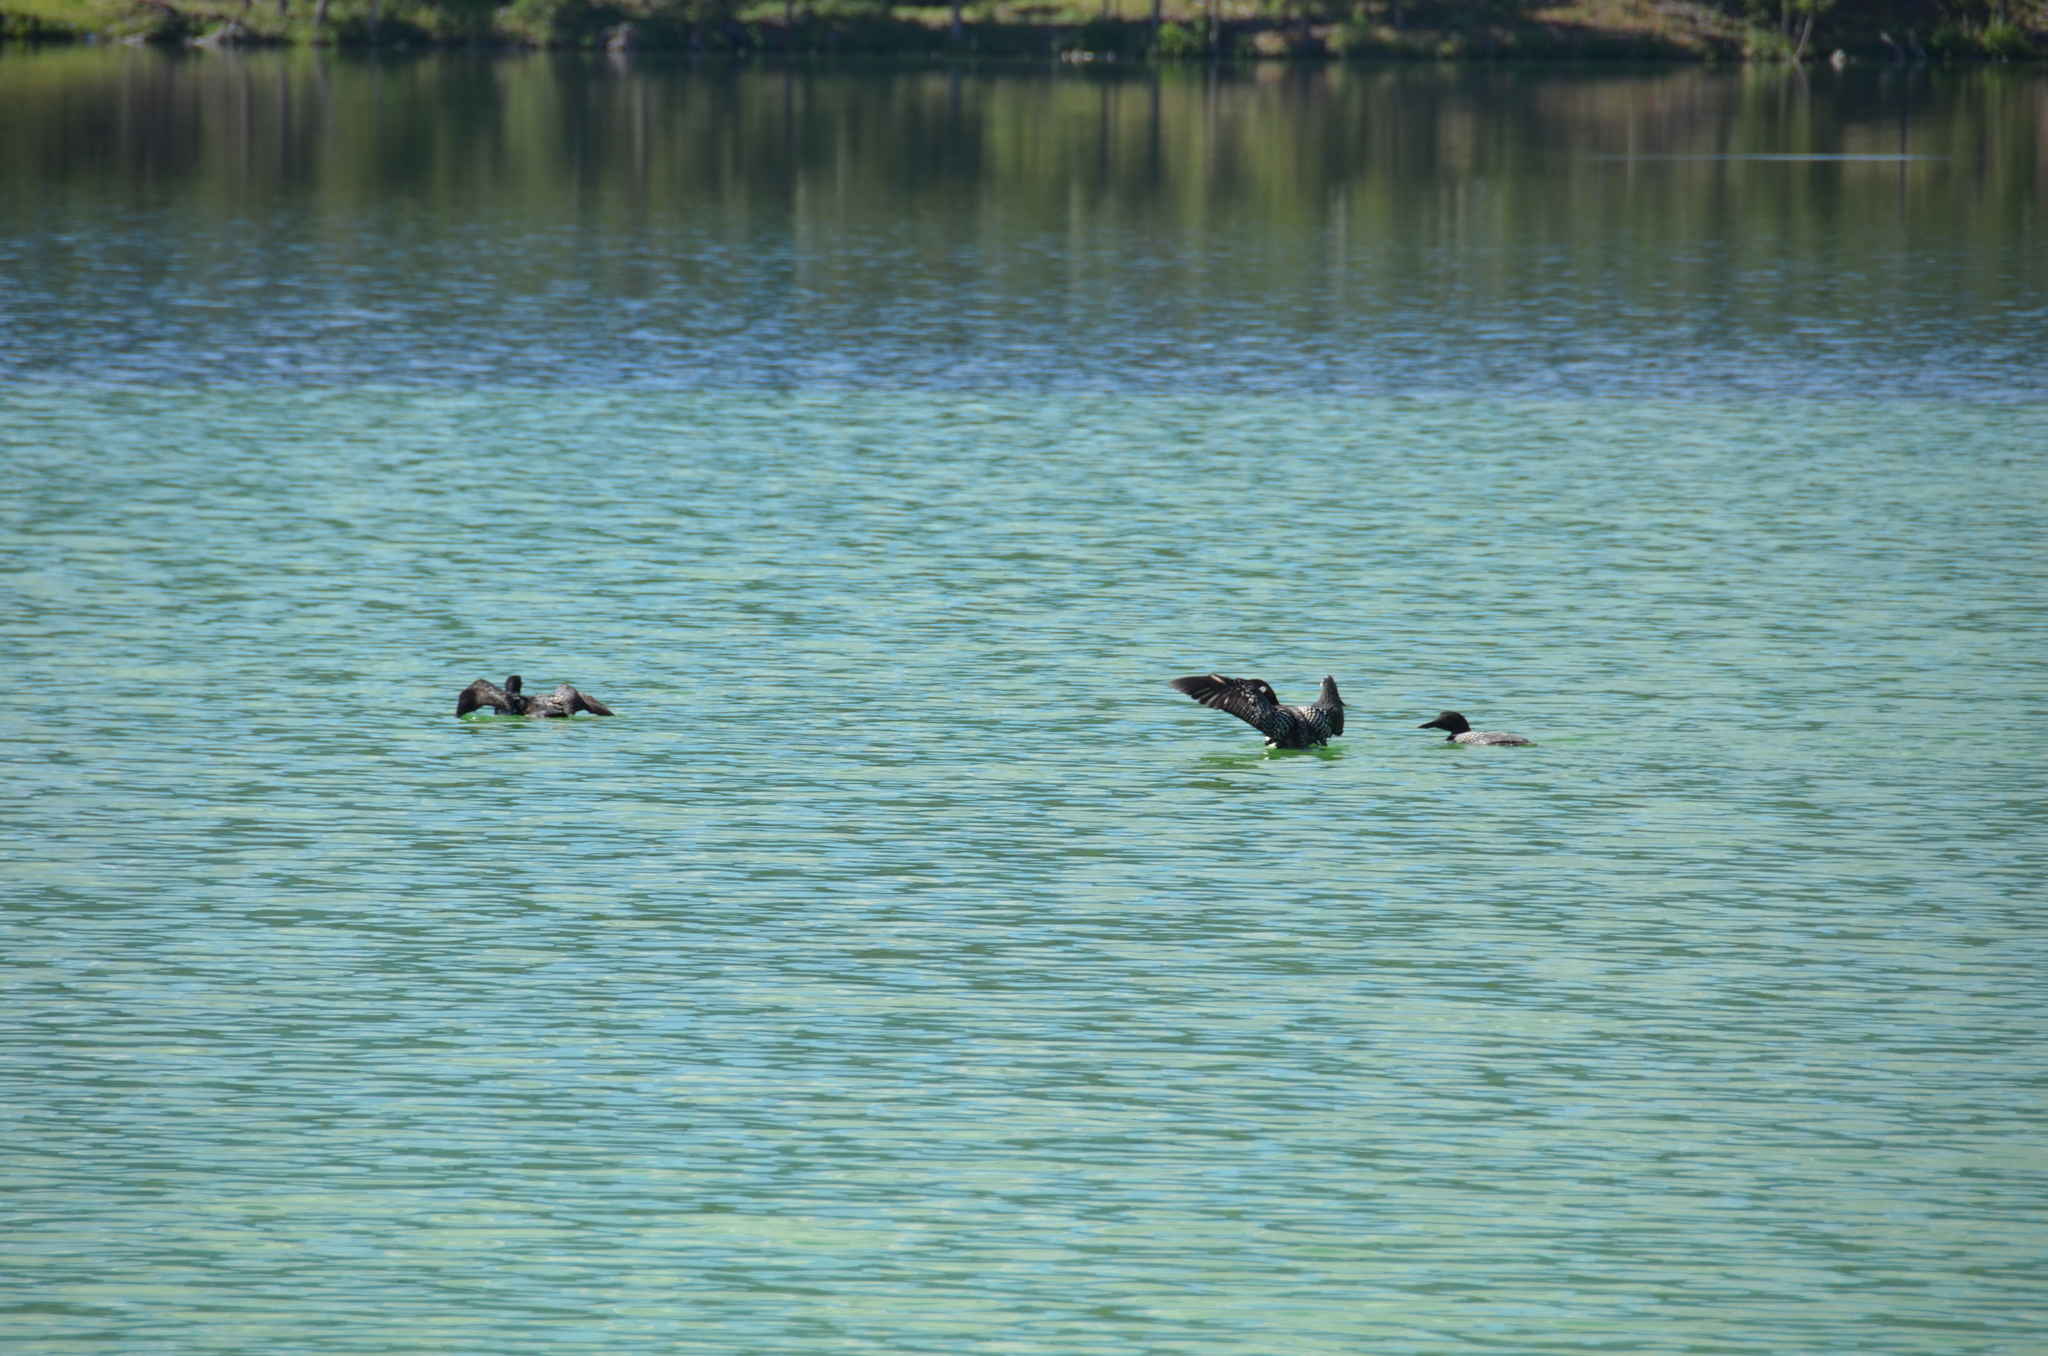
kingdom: Animalia
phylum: Chordata
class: Aves
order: Gaviiformes
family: Gaviidae
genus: Gavia
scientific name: Gavia immer
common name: Common loon
